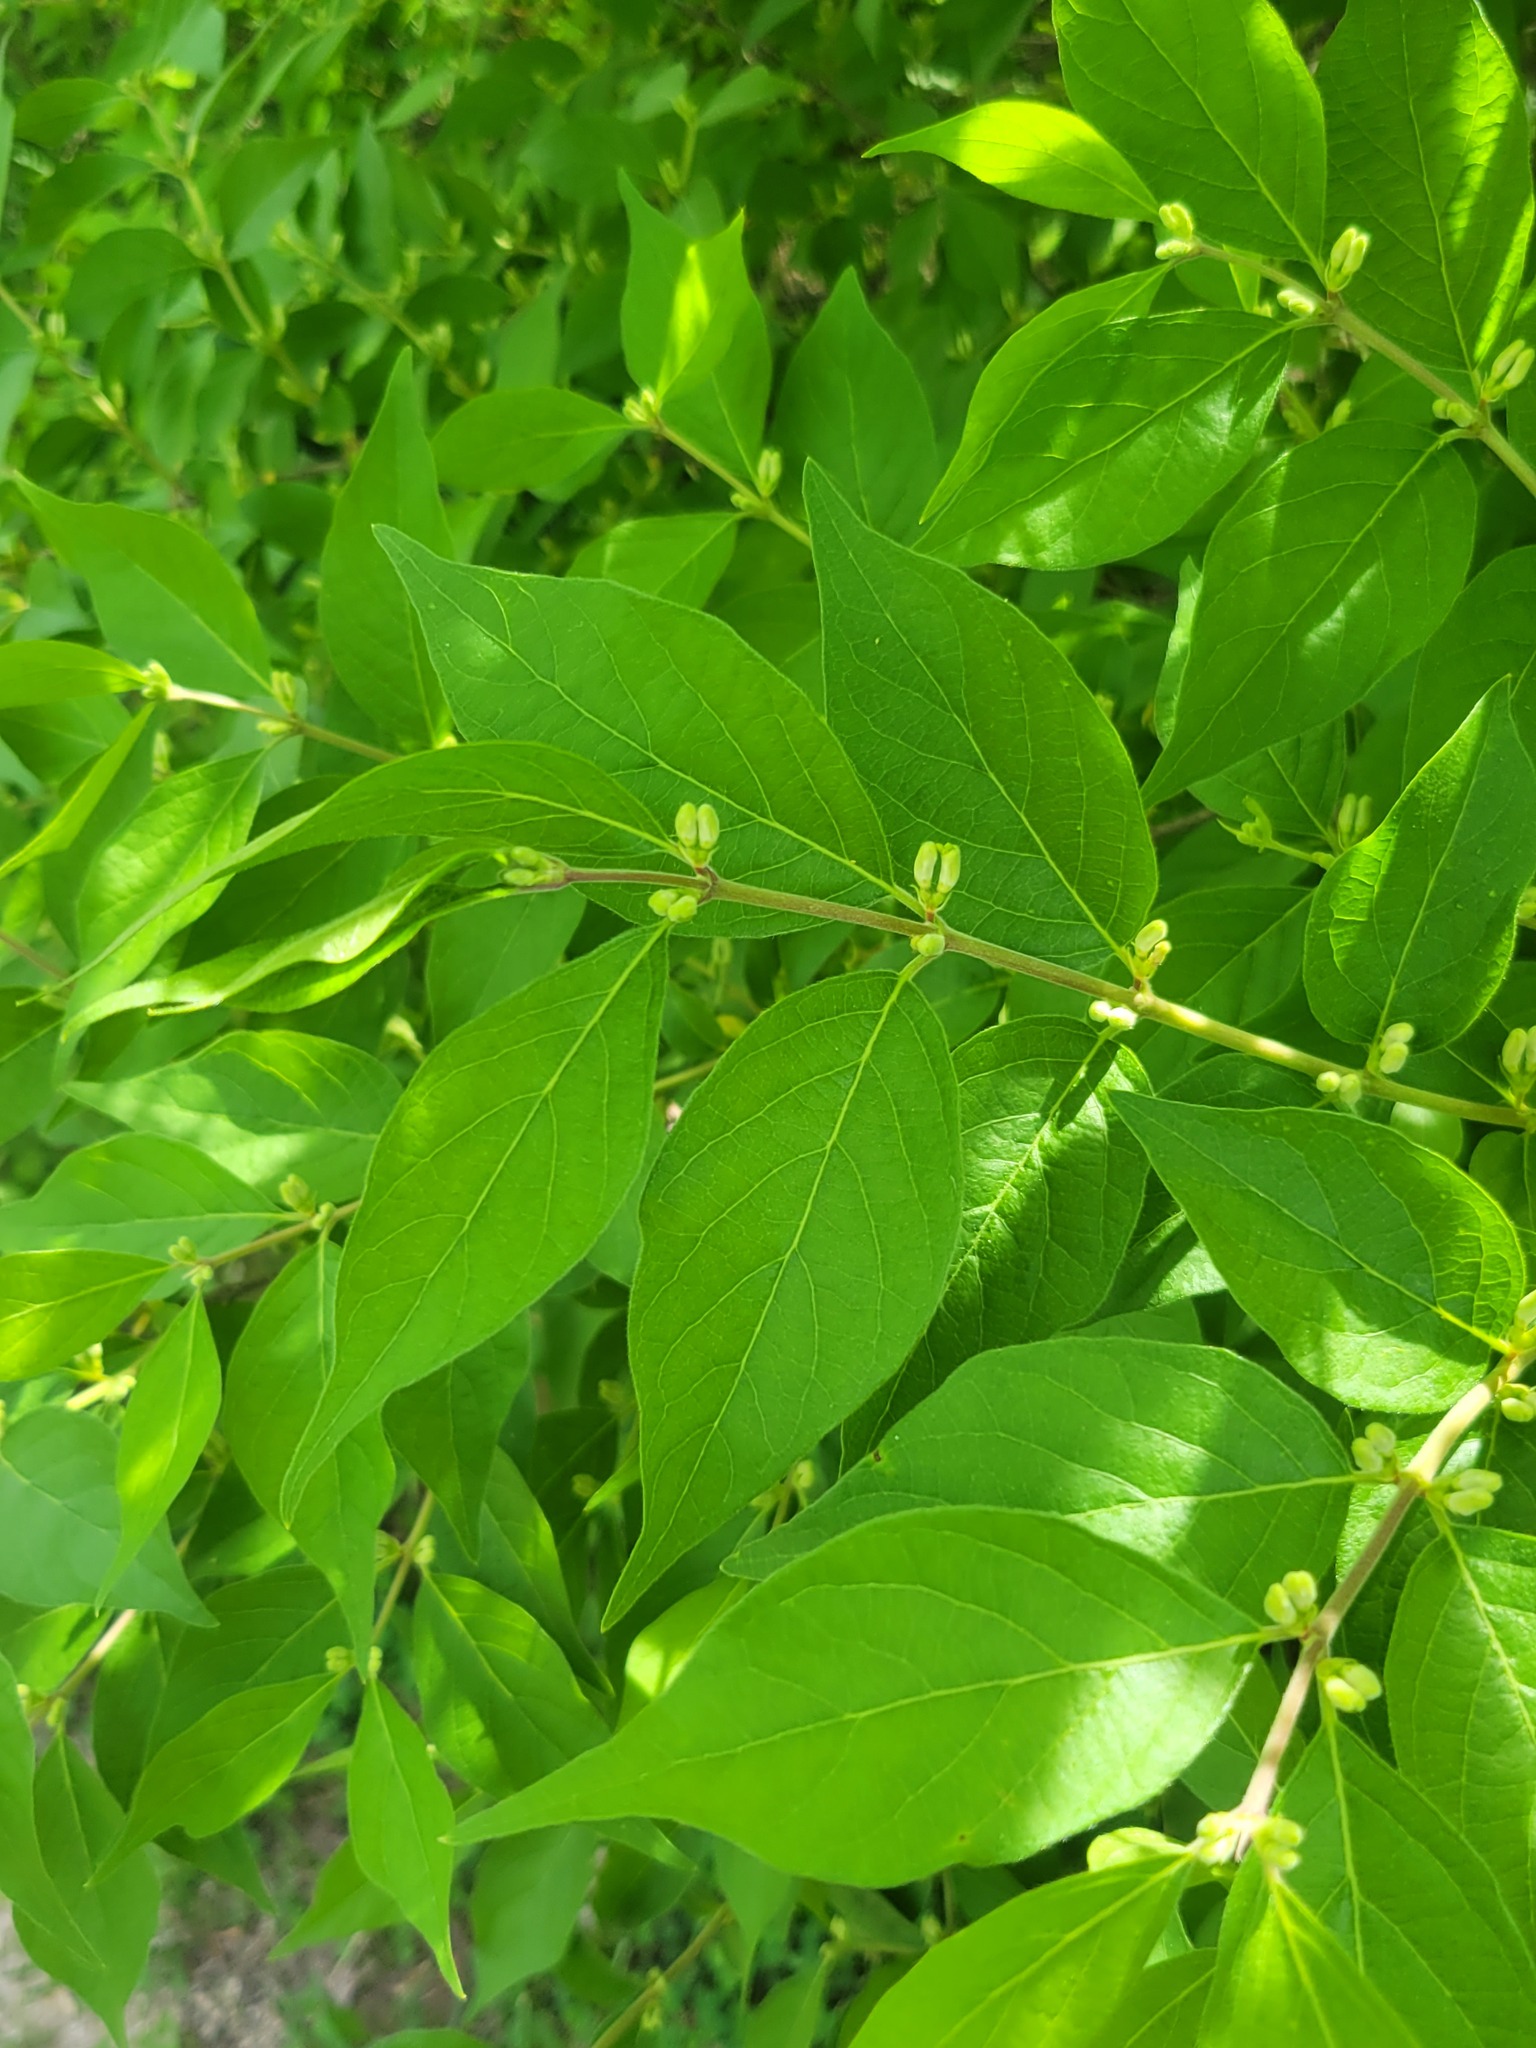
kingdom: Plantae
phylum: Tracheophyta
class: Magnoliopsida
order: Dipsacales
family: Caprifoliaceae
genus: Lonicera
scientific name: Lonicera maackii
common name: Amur honeysuckle
